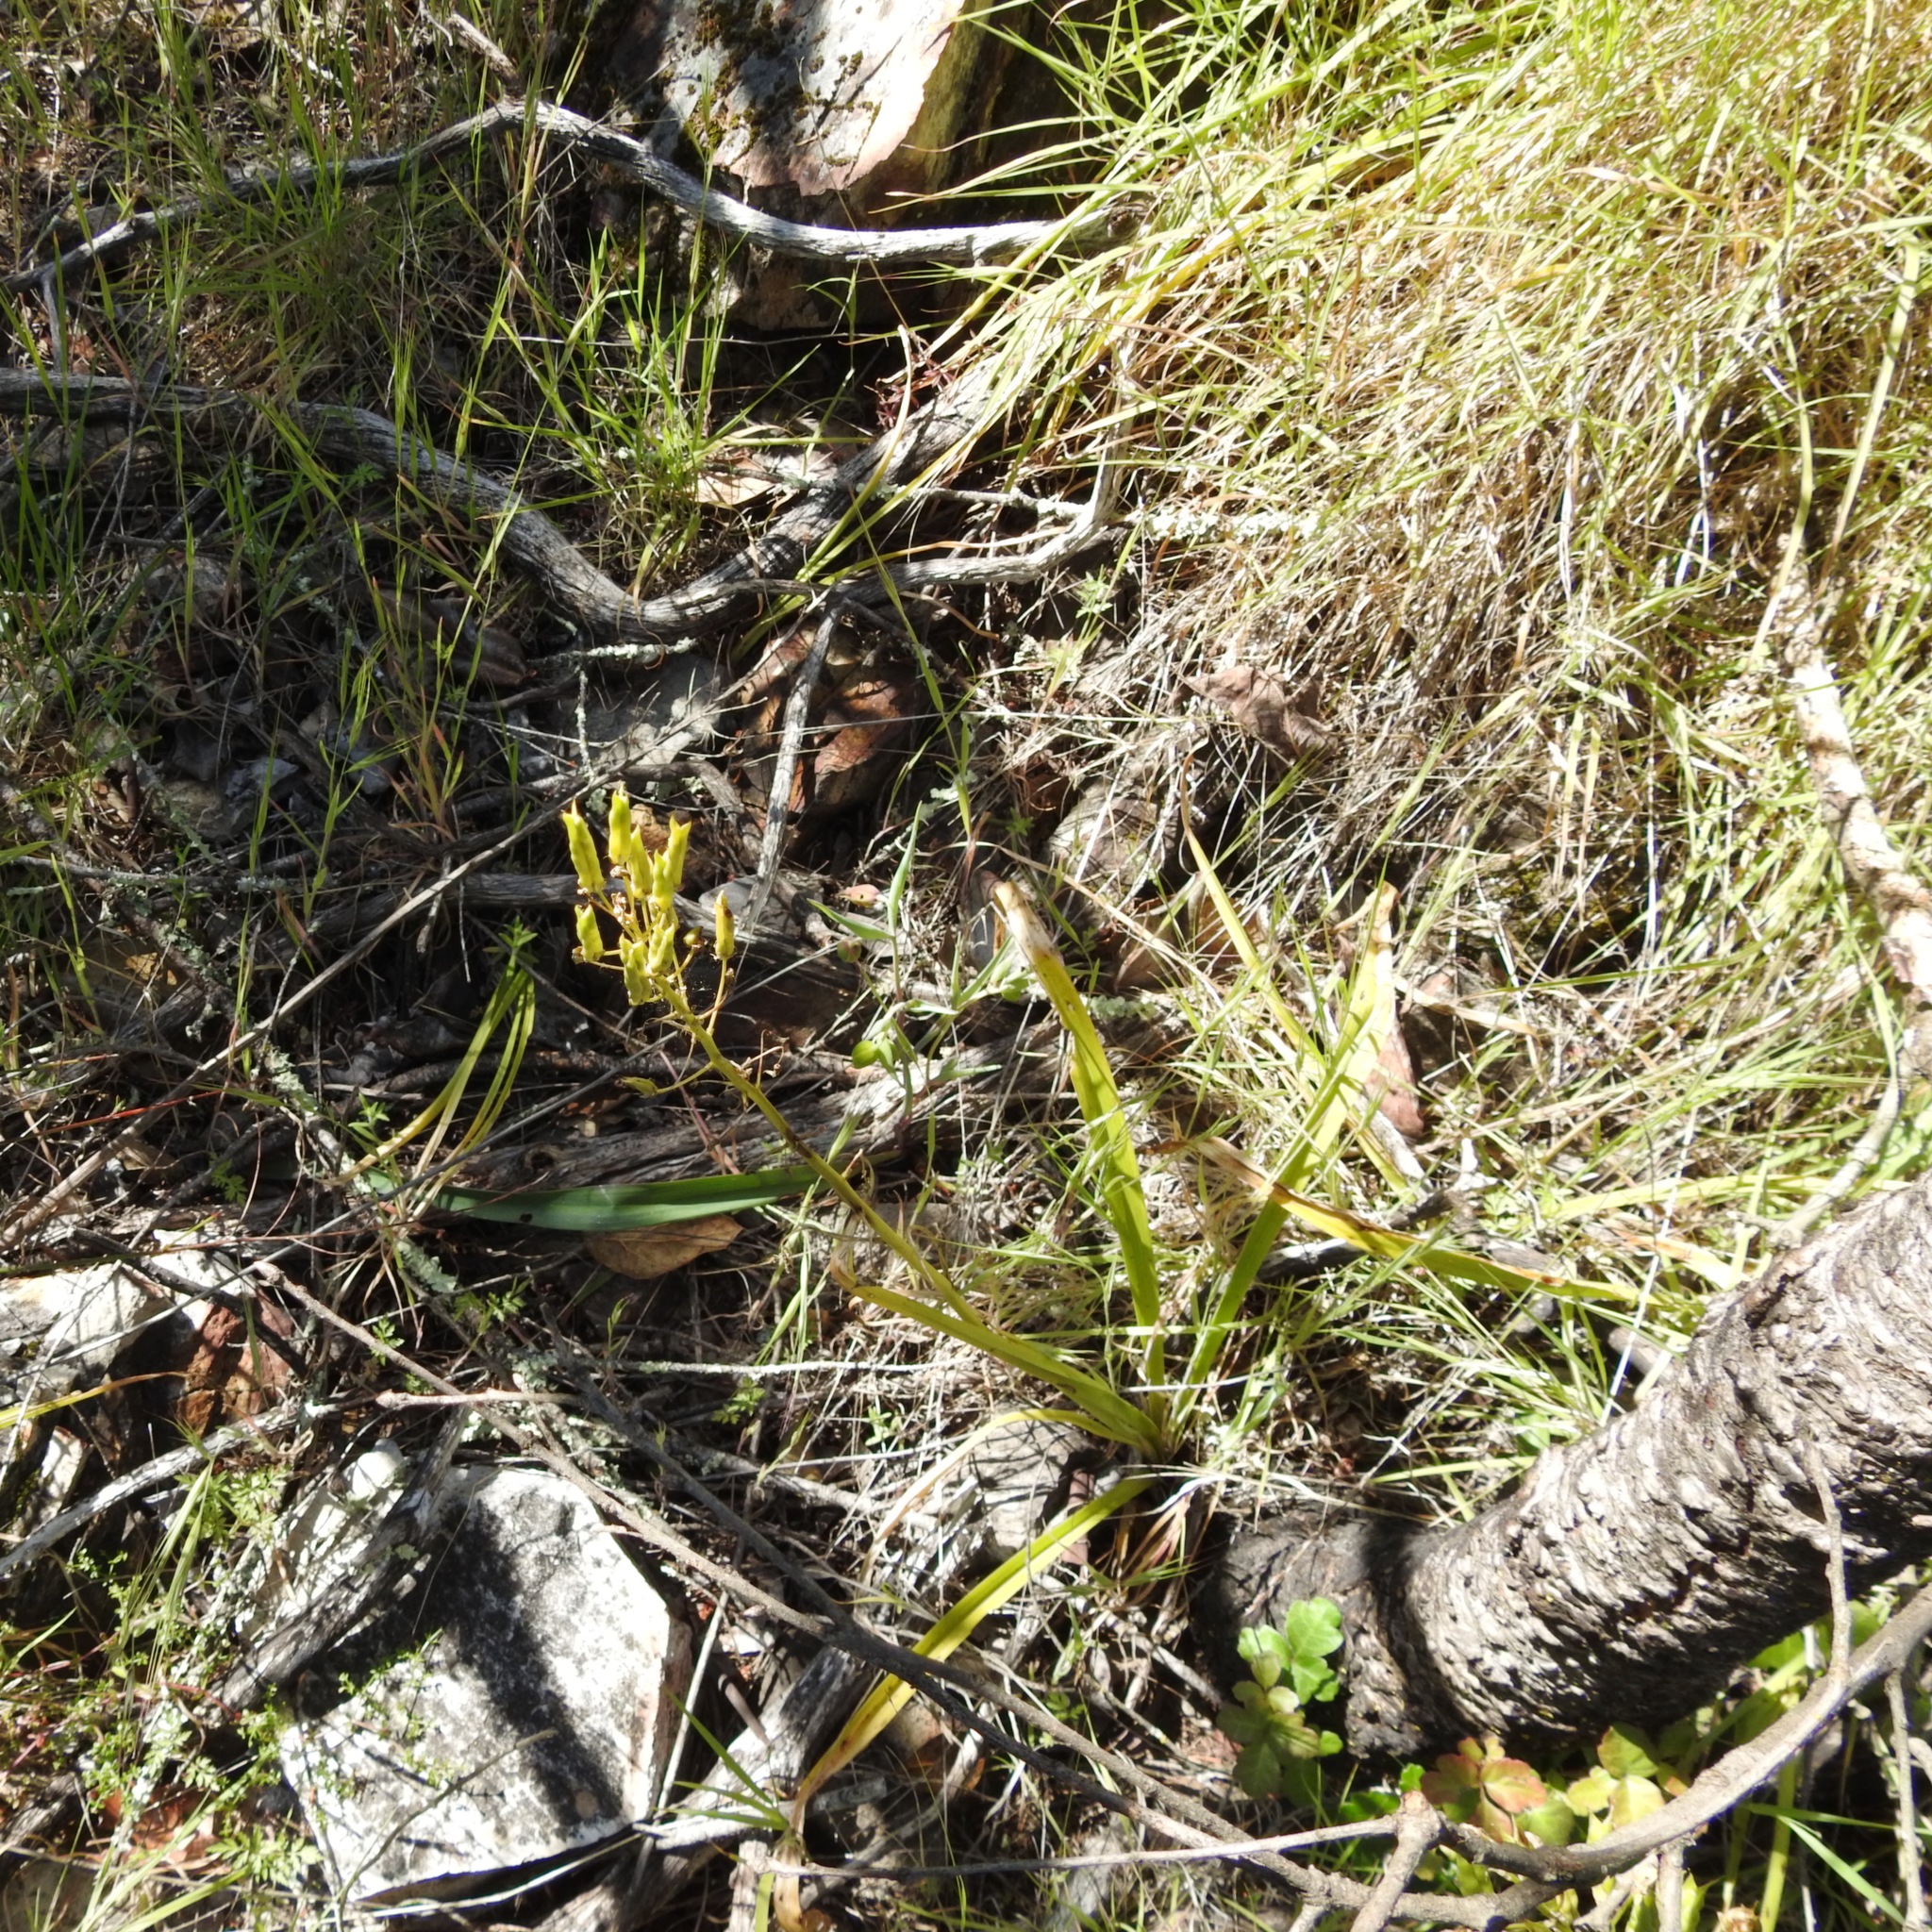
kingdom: Plantae
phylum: Tracheophyta
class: Liliopsida
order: Liliales
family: Melanthiaceae
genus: Toxicoscordion
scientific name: Toxicoscordion fremontii
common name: Fremont's death camas
